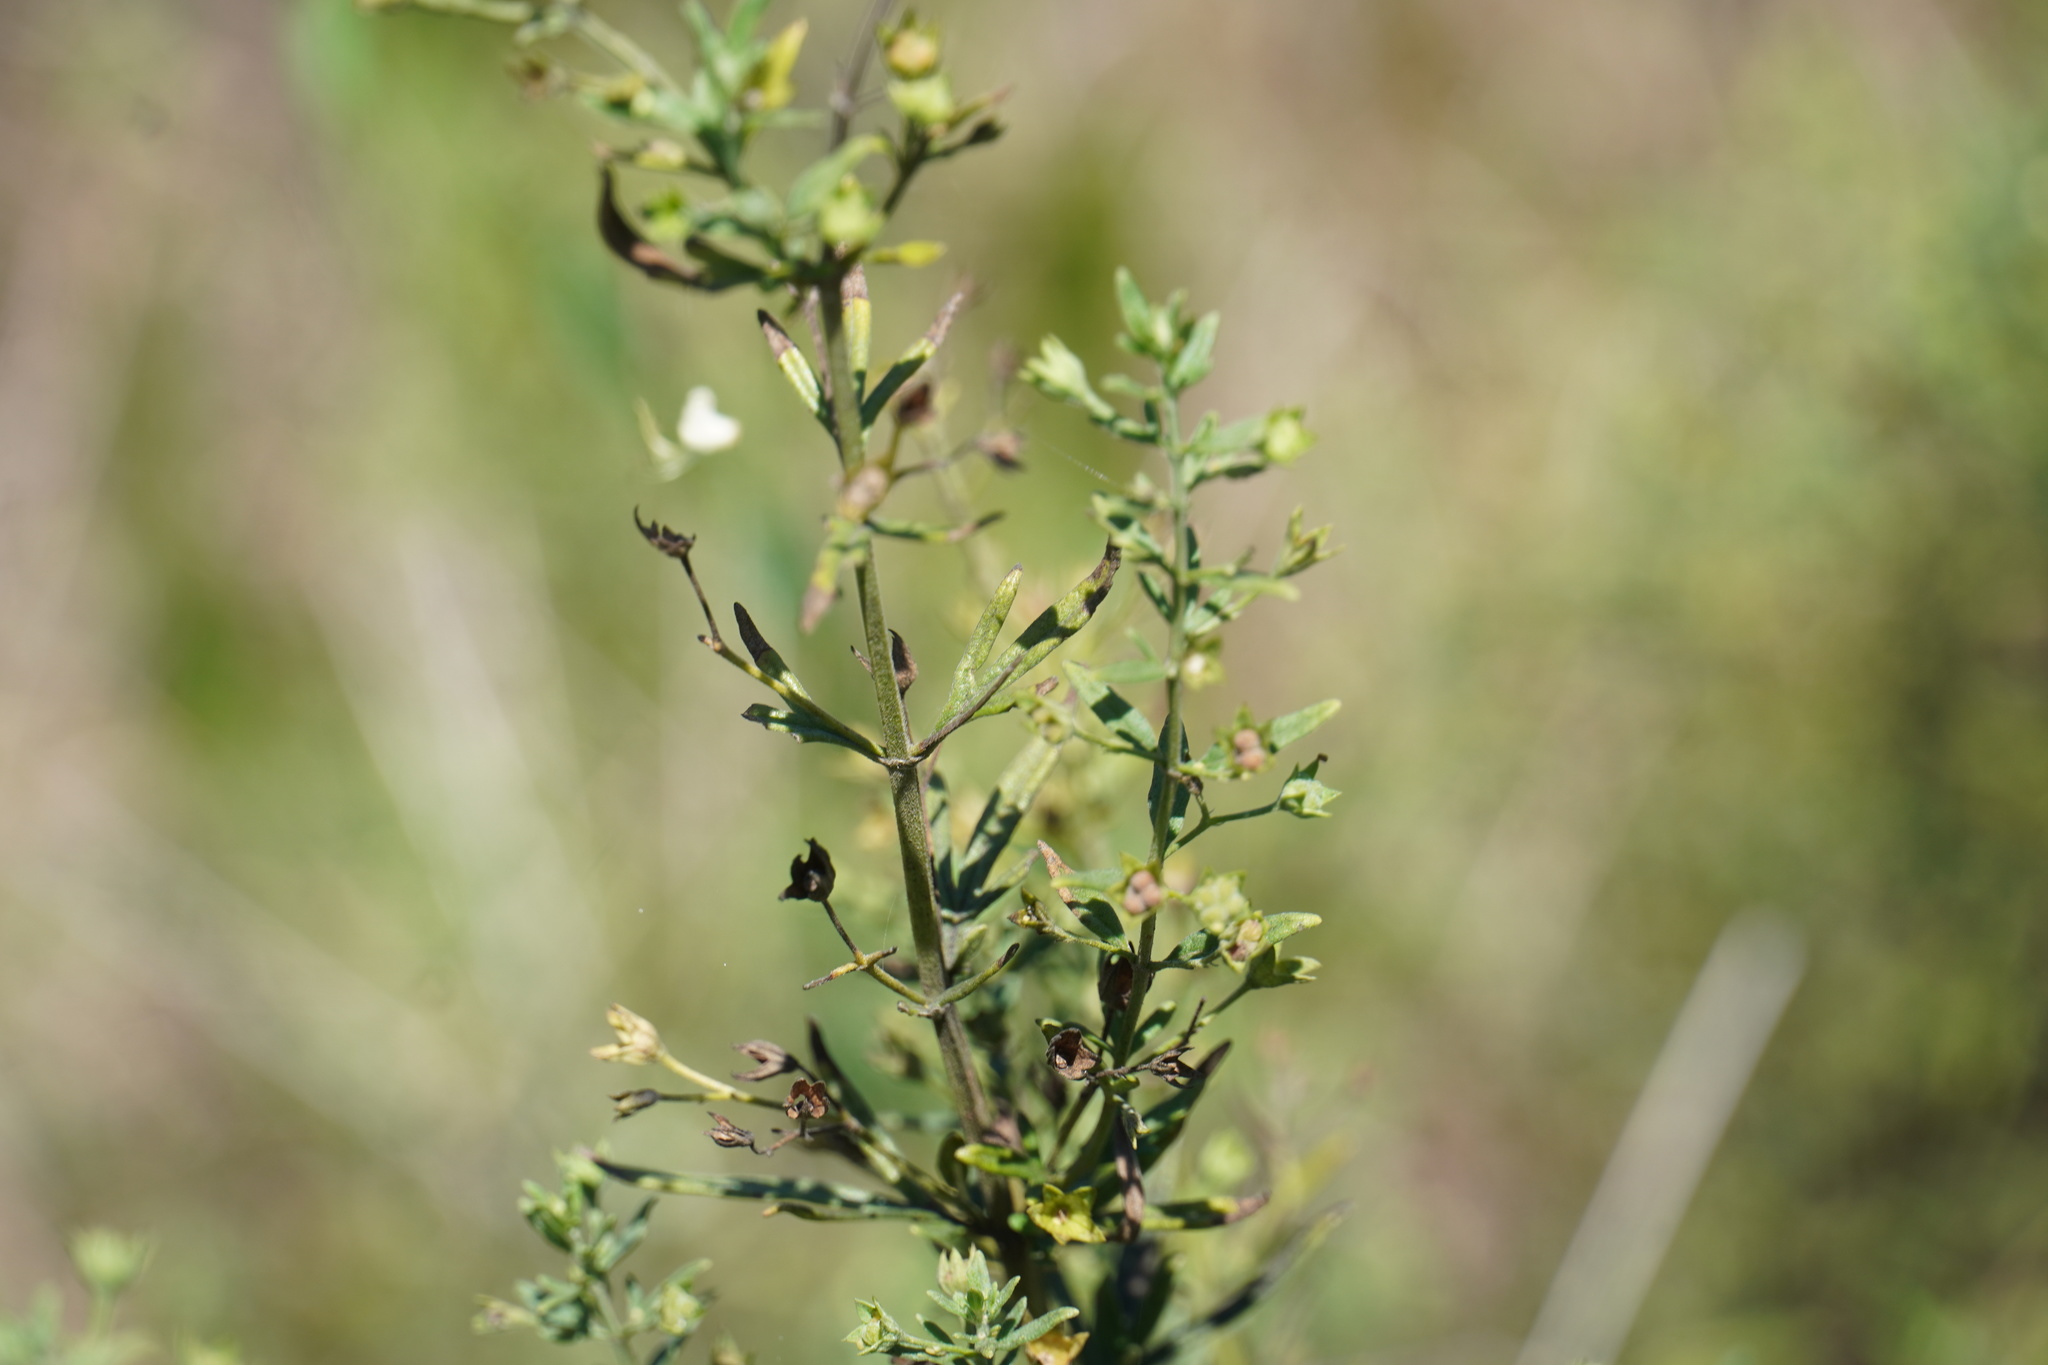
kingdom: Plantae
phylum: Tracheophyta
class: Magnoliopsida
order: Lamiales
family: Lamiaceae
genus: Teucrium
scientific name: Teucrium trifidum
